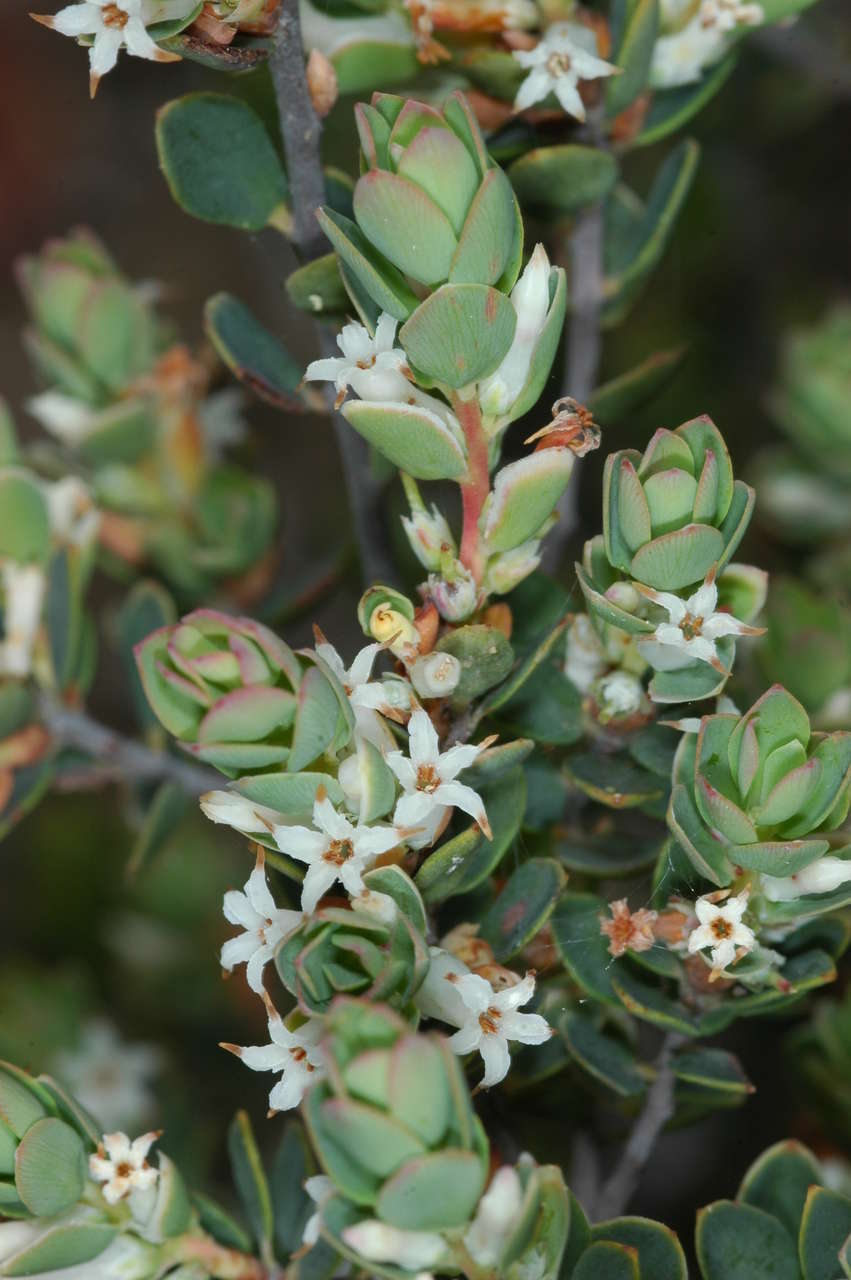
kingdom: Plantae
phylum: Tracheophyta
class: Magnoliopsida
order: Ericales
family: Ericaceae
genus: Brachyloma
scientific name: Brachyloma daphnoides
